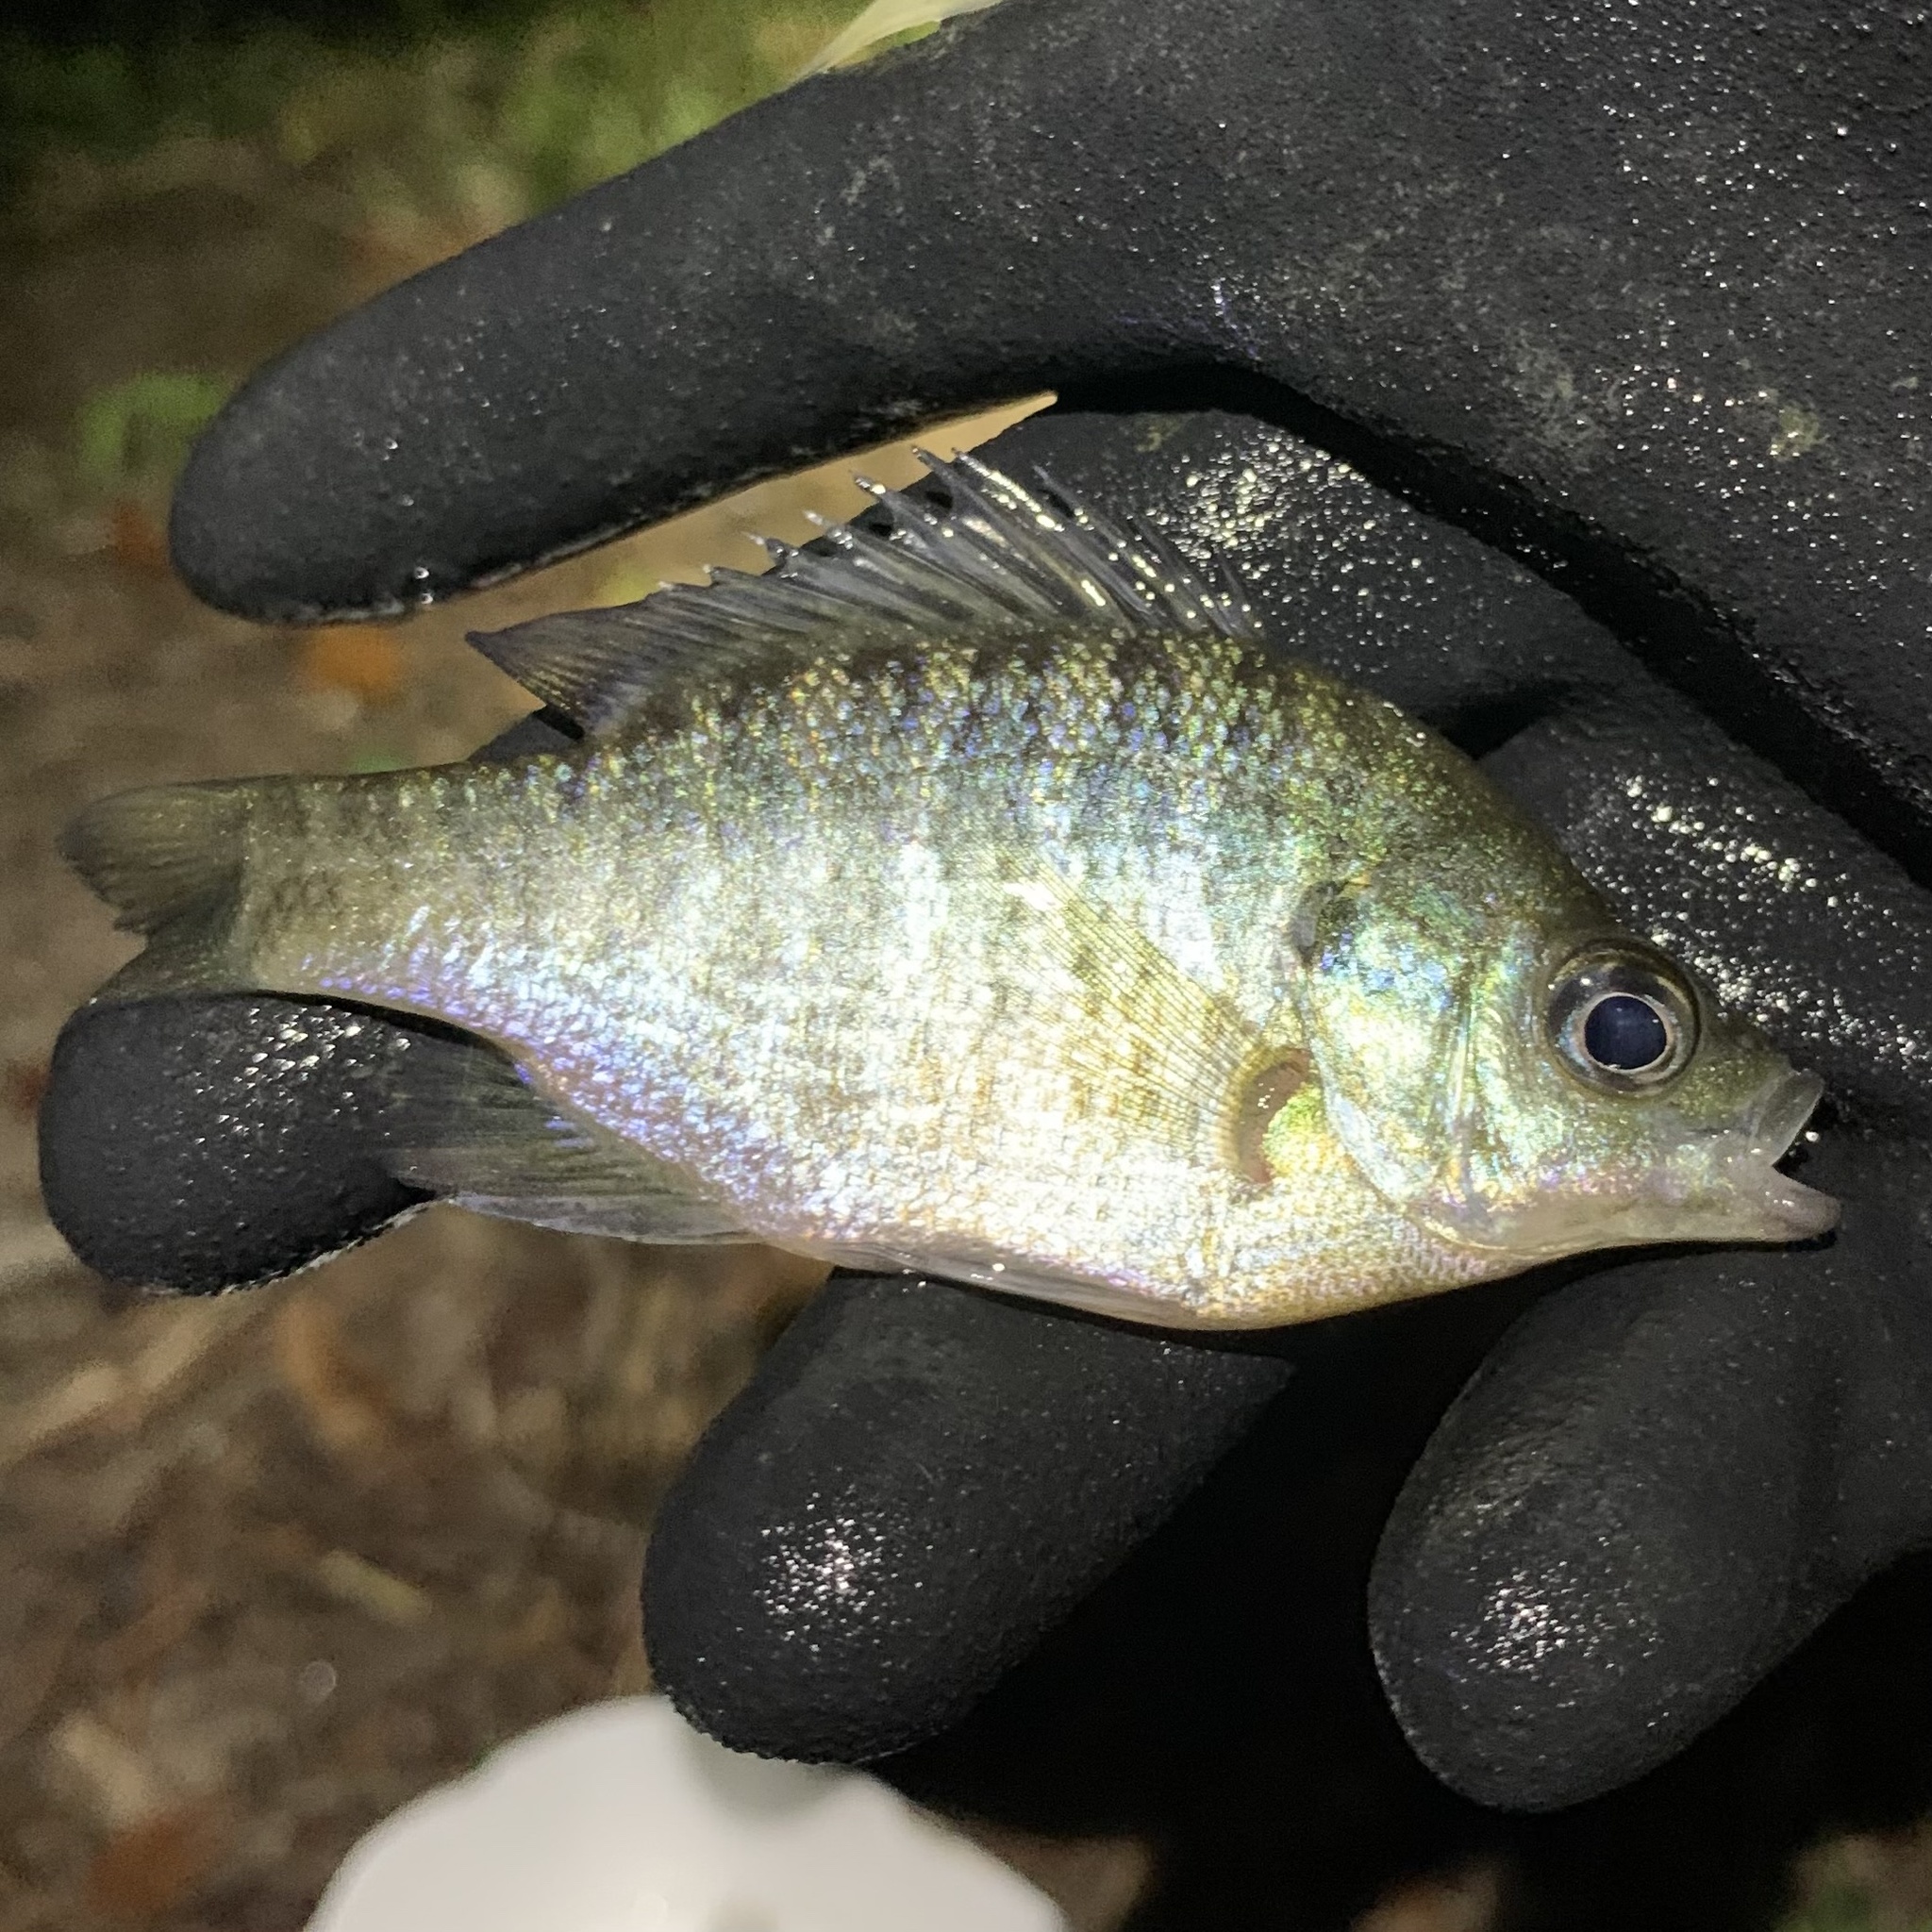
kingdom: Animalia
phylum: Chordata
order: Perciformes
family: Centrarchidae
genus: Lepomis
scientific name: Lepomis macrochirus
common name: Bluegill
